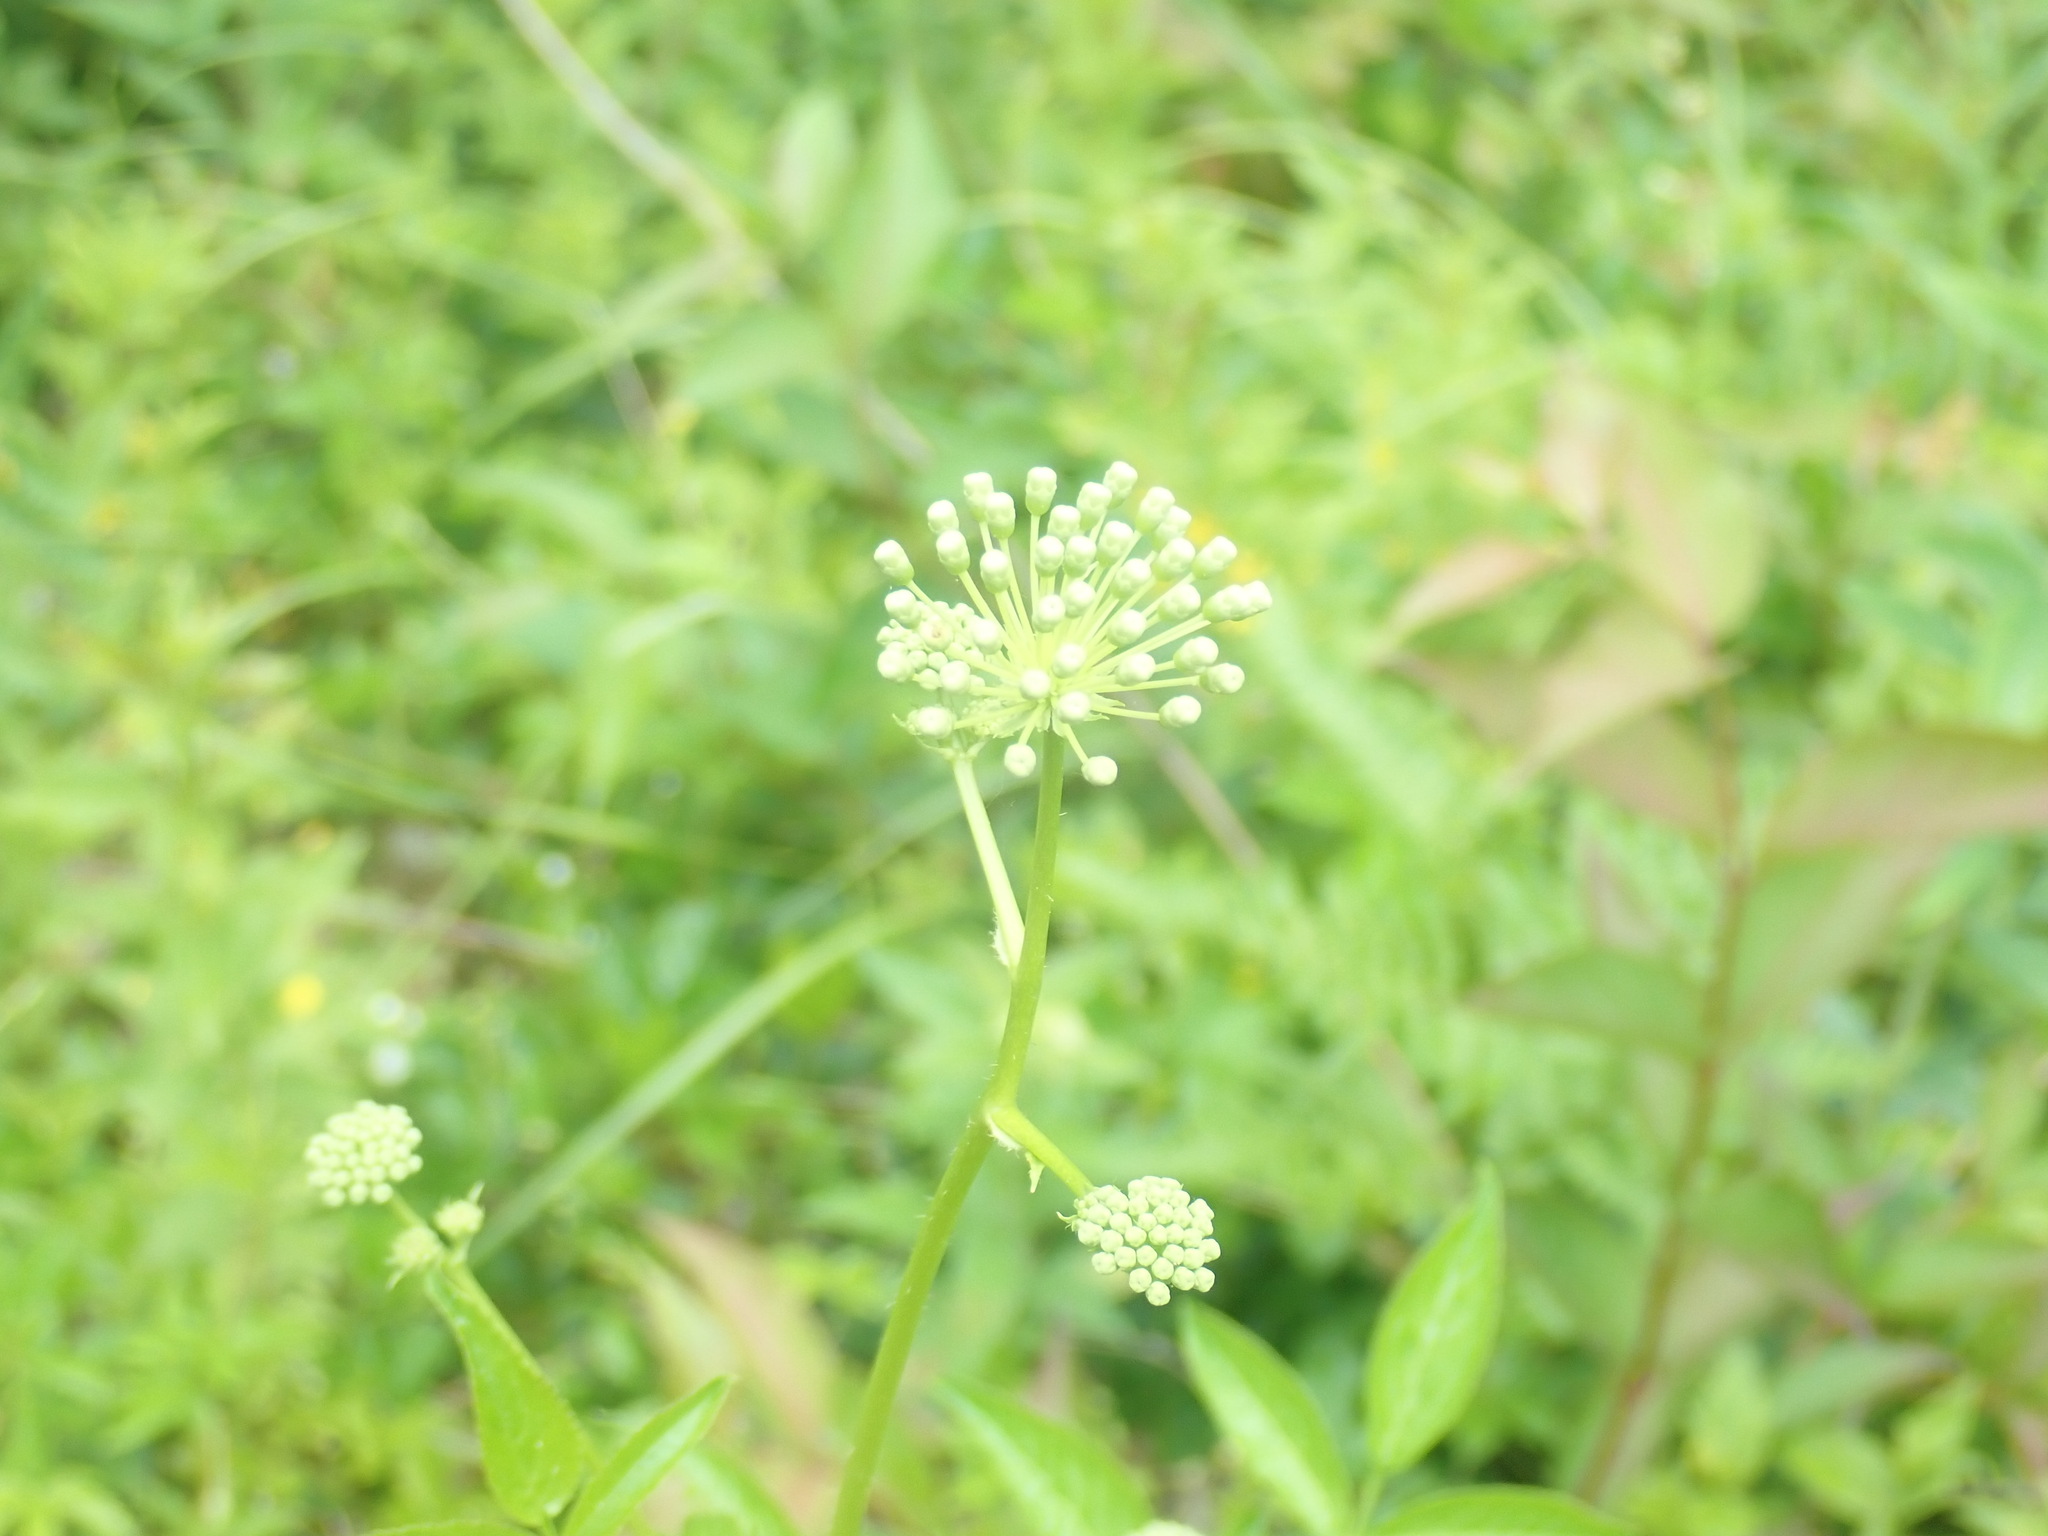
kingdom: Plantae
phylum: Tracheophyta
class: Magnoliopsida
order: Apiales
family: Araliaceae
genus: Aralia
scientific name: Aralia hispida
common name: Bristly sarsaparilla
